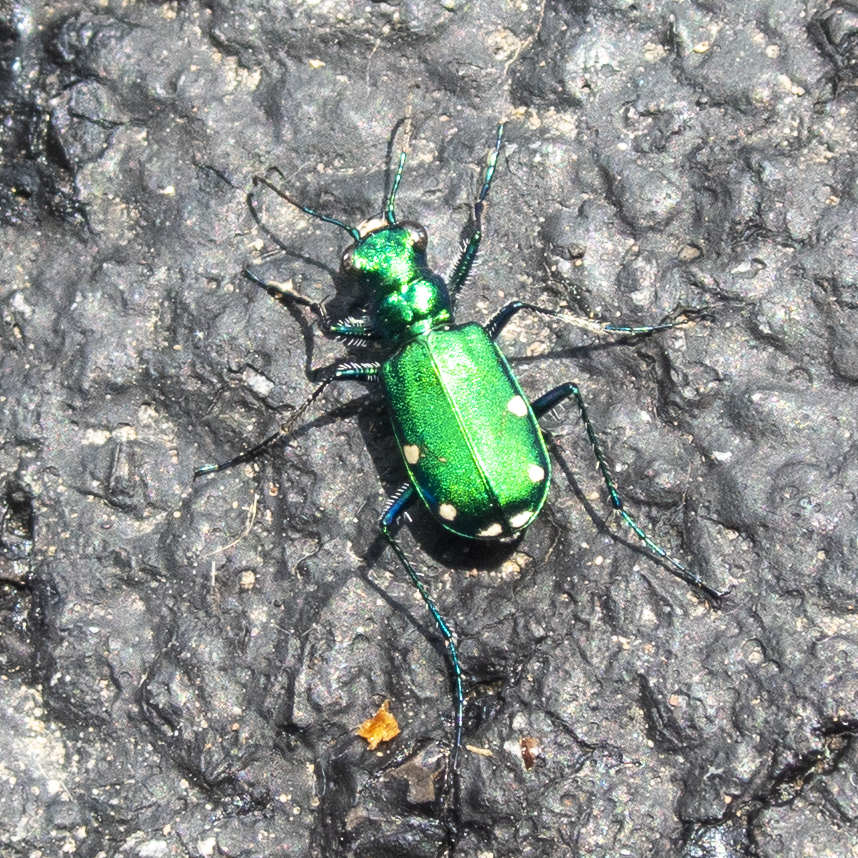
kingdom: Animalia
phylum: Arthropoda
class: Insecta
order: Coleoptera
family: Carabidae
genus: Cicindela
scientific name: Cicindela sexguttata
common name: Six-spotted tiger beetle
